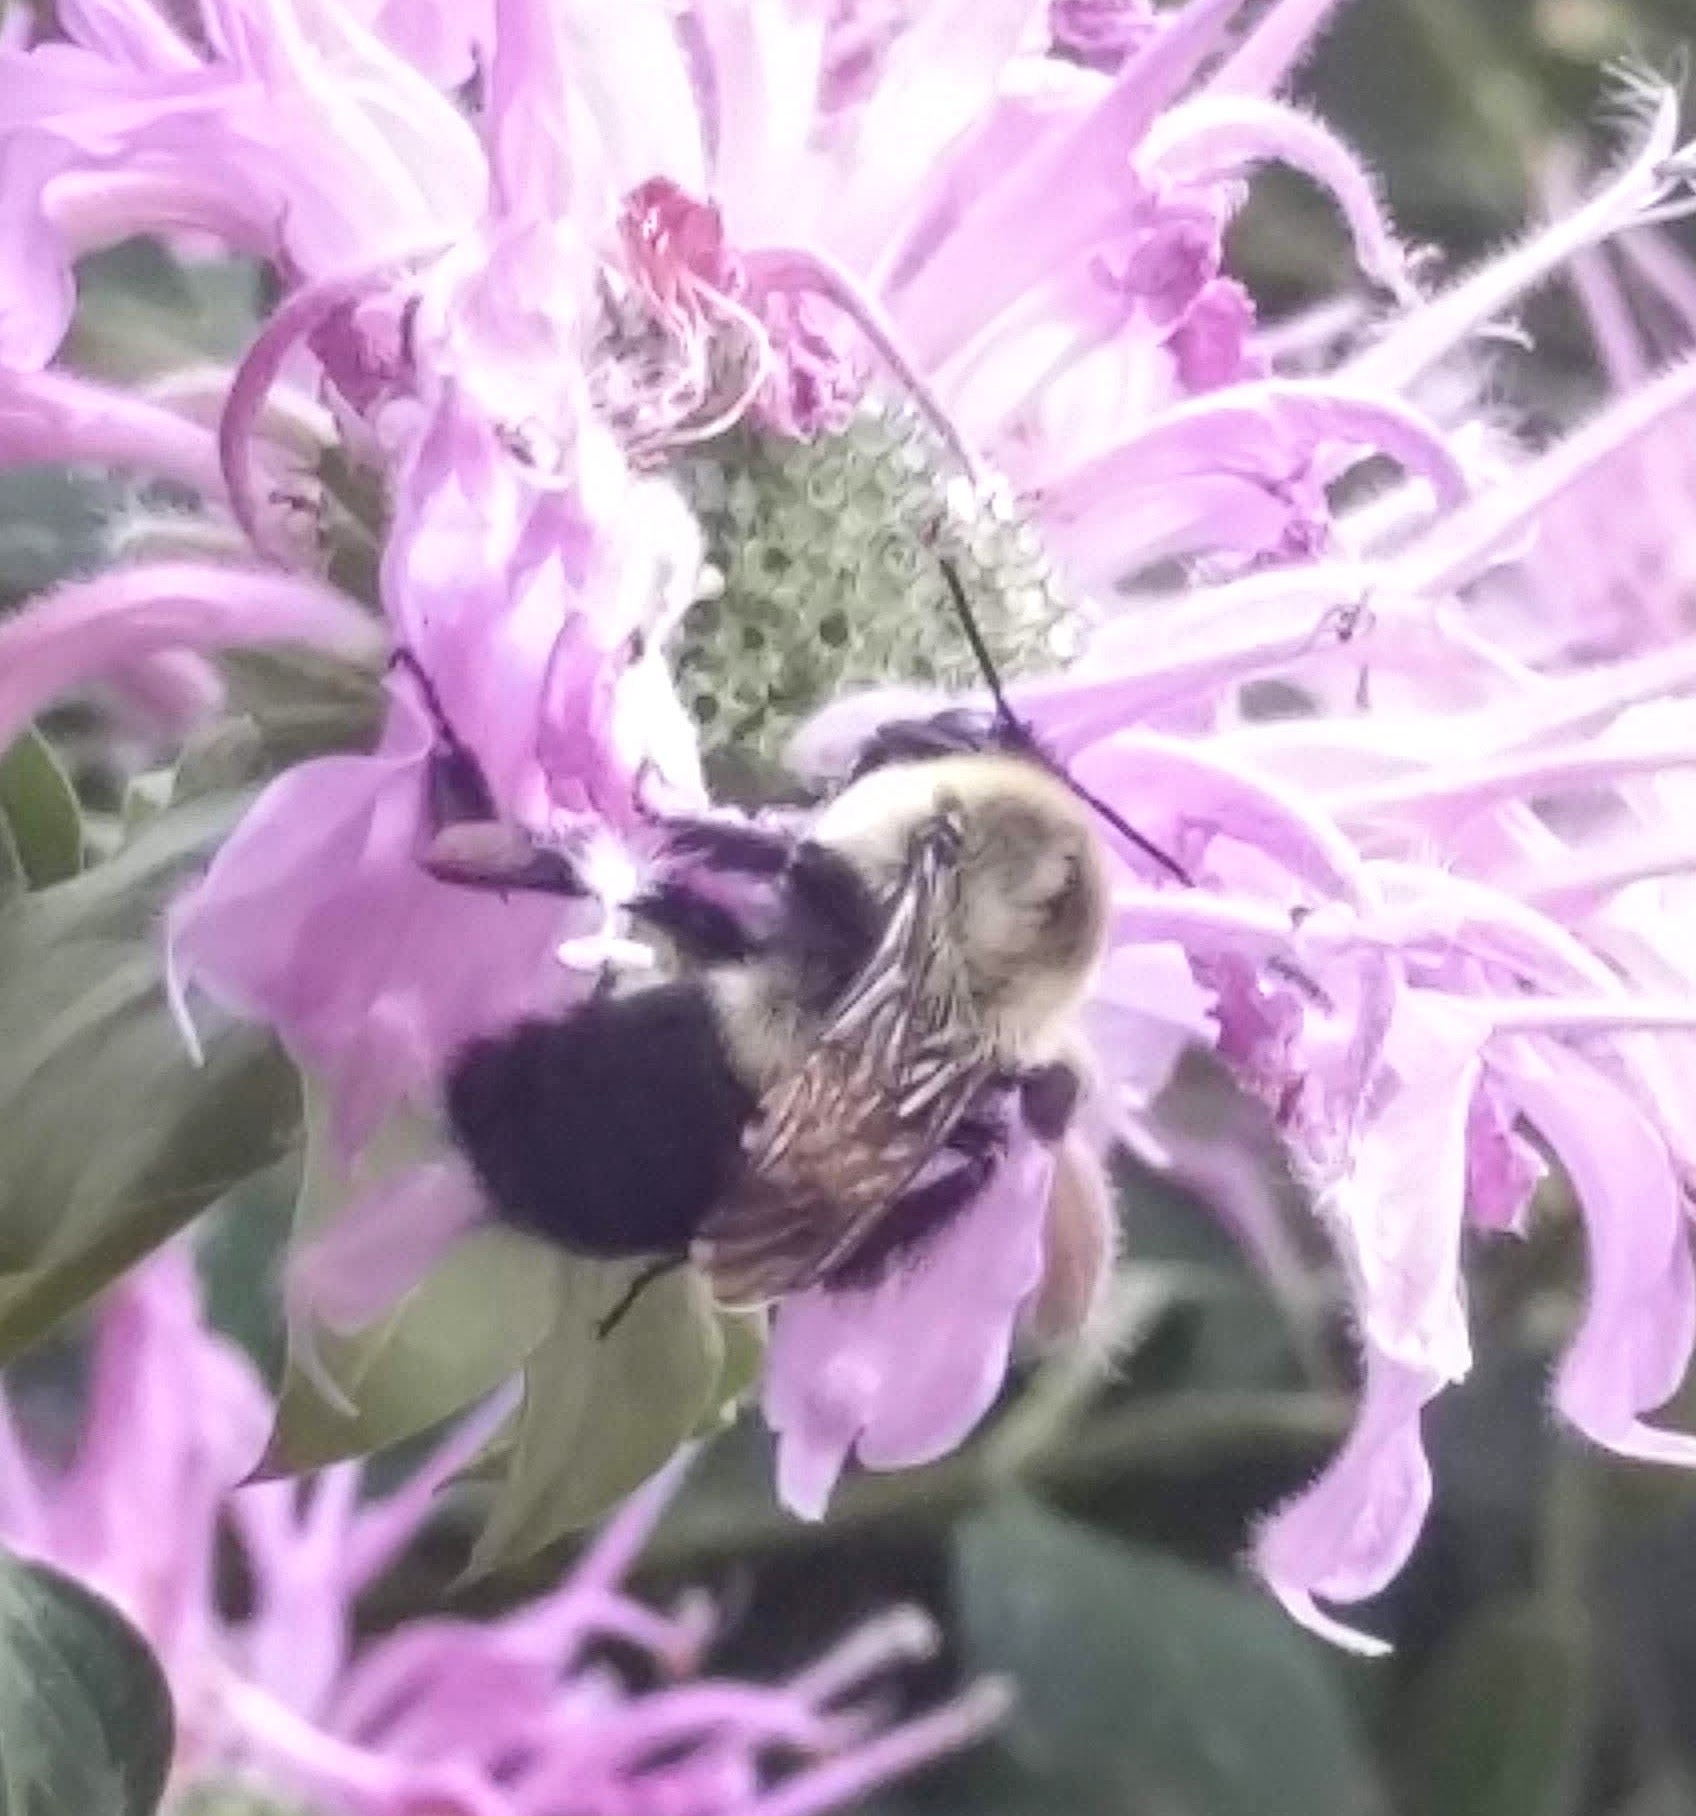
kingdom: Animalia
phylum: Arthropoda
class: Insecta
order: Hymenoptera
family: Apidae
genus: Bombus
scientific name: Bombus impatiens
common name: Common eastern bumble bee
